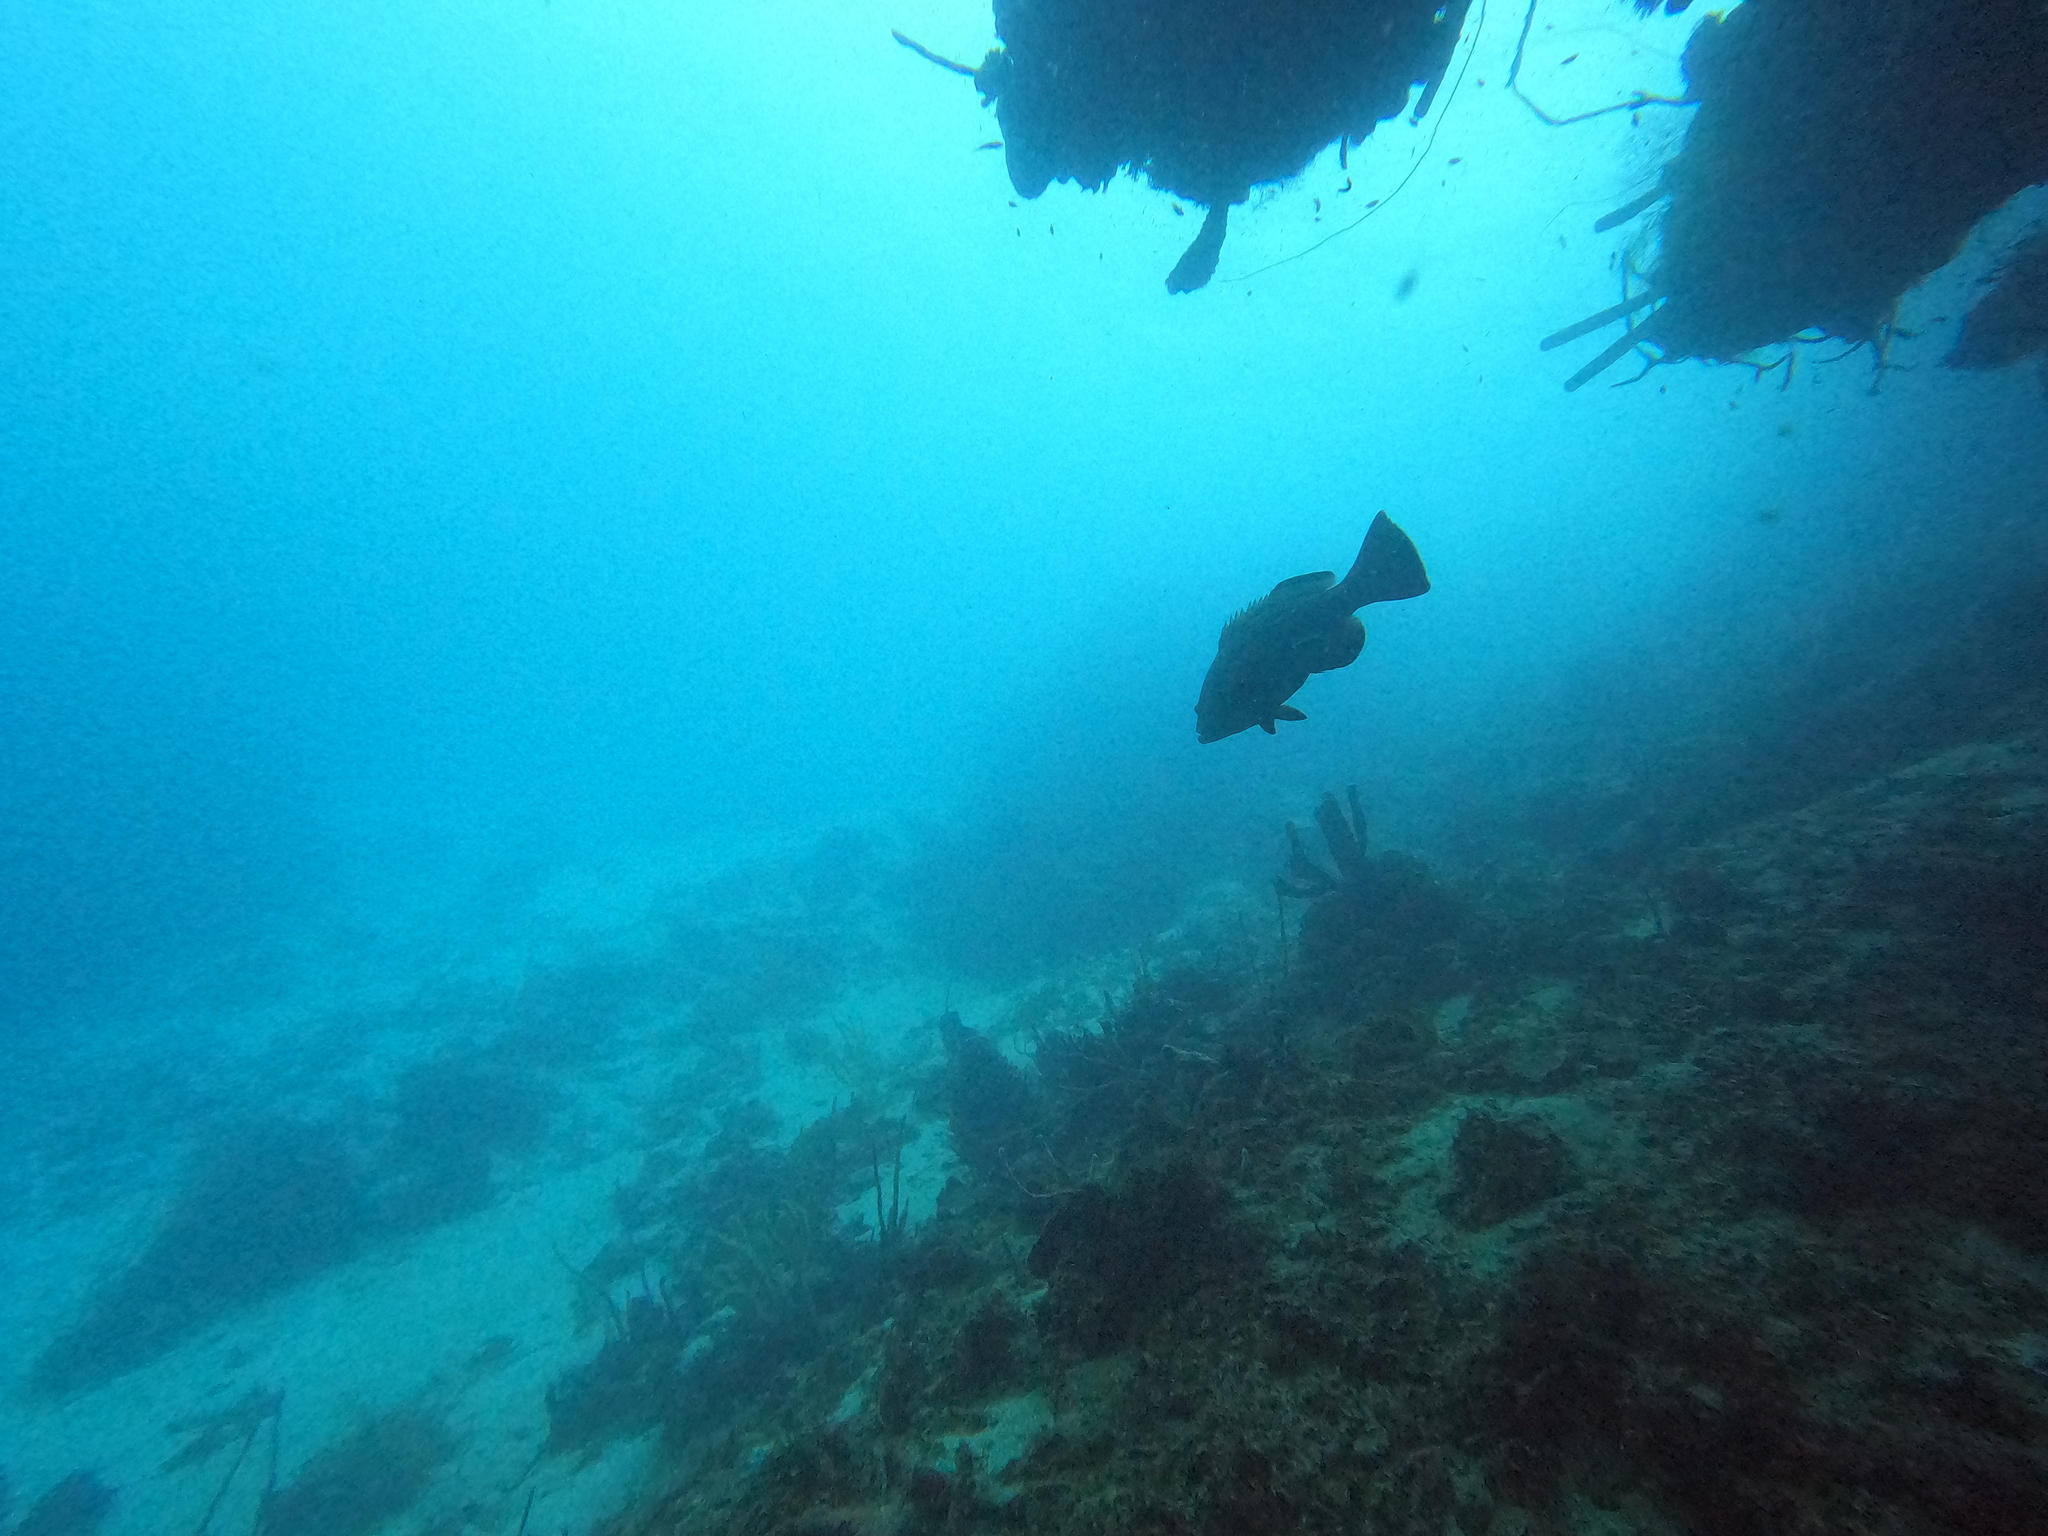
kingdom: Animalia
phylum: Chordata
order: Perciformes
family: Serranidae
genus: Mycteroperca
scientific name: Mycteroperca bonaci
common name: Black grouper
